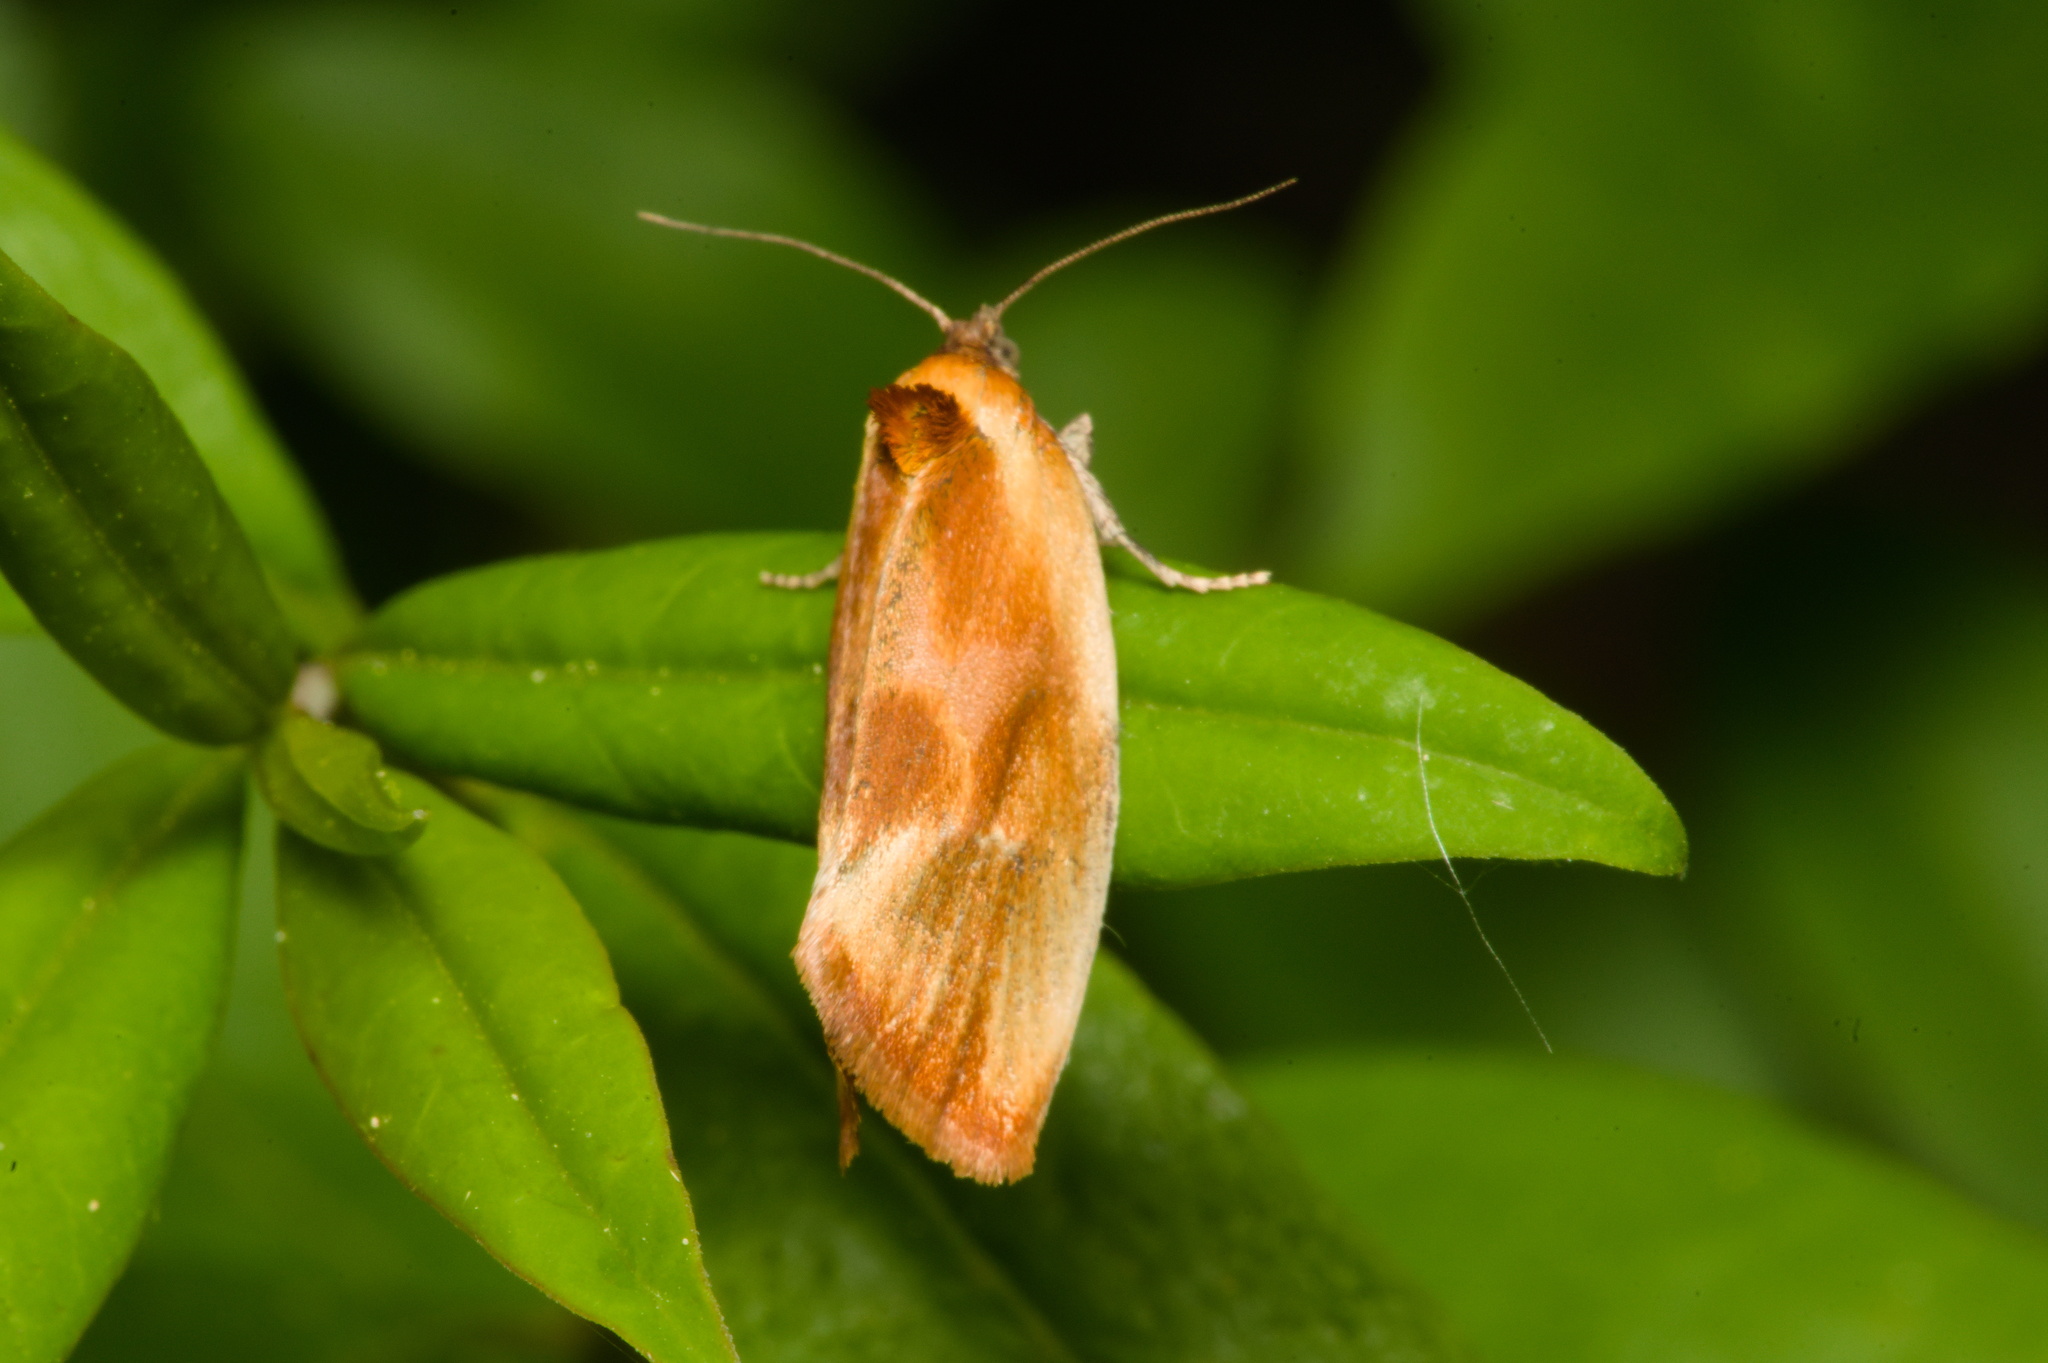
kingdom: Animalia
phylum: Arthropoda
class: Insecta
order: Lepidoptera
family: Tortricidae
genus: Eulia
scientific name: Eulia ministrana
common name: Brassy twist
